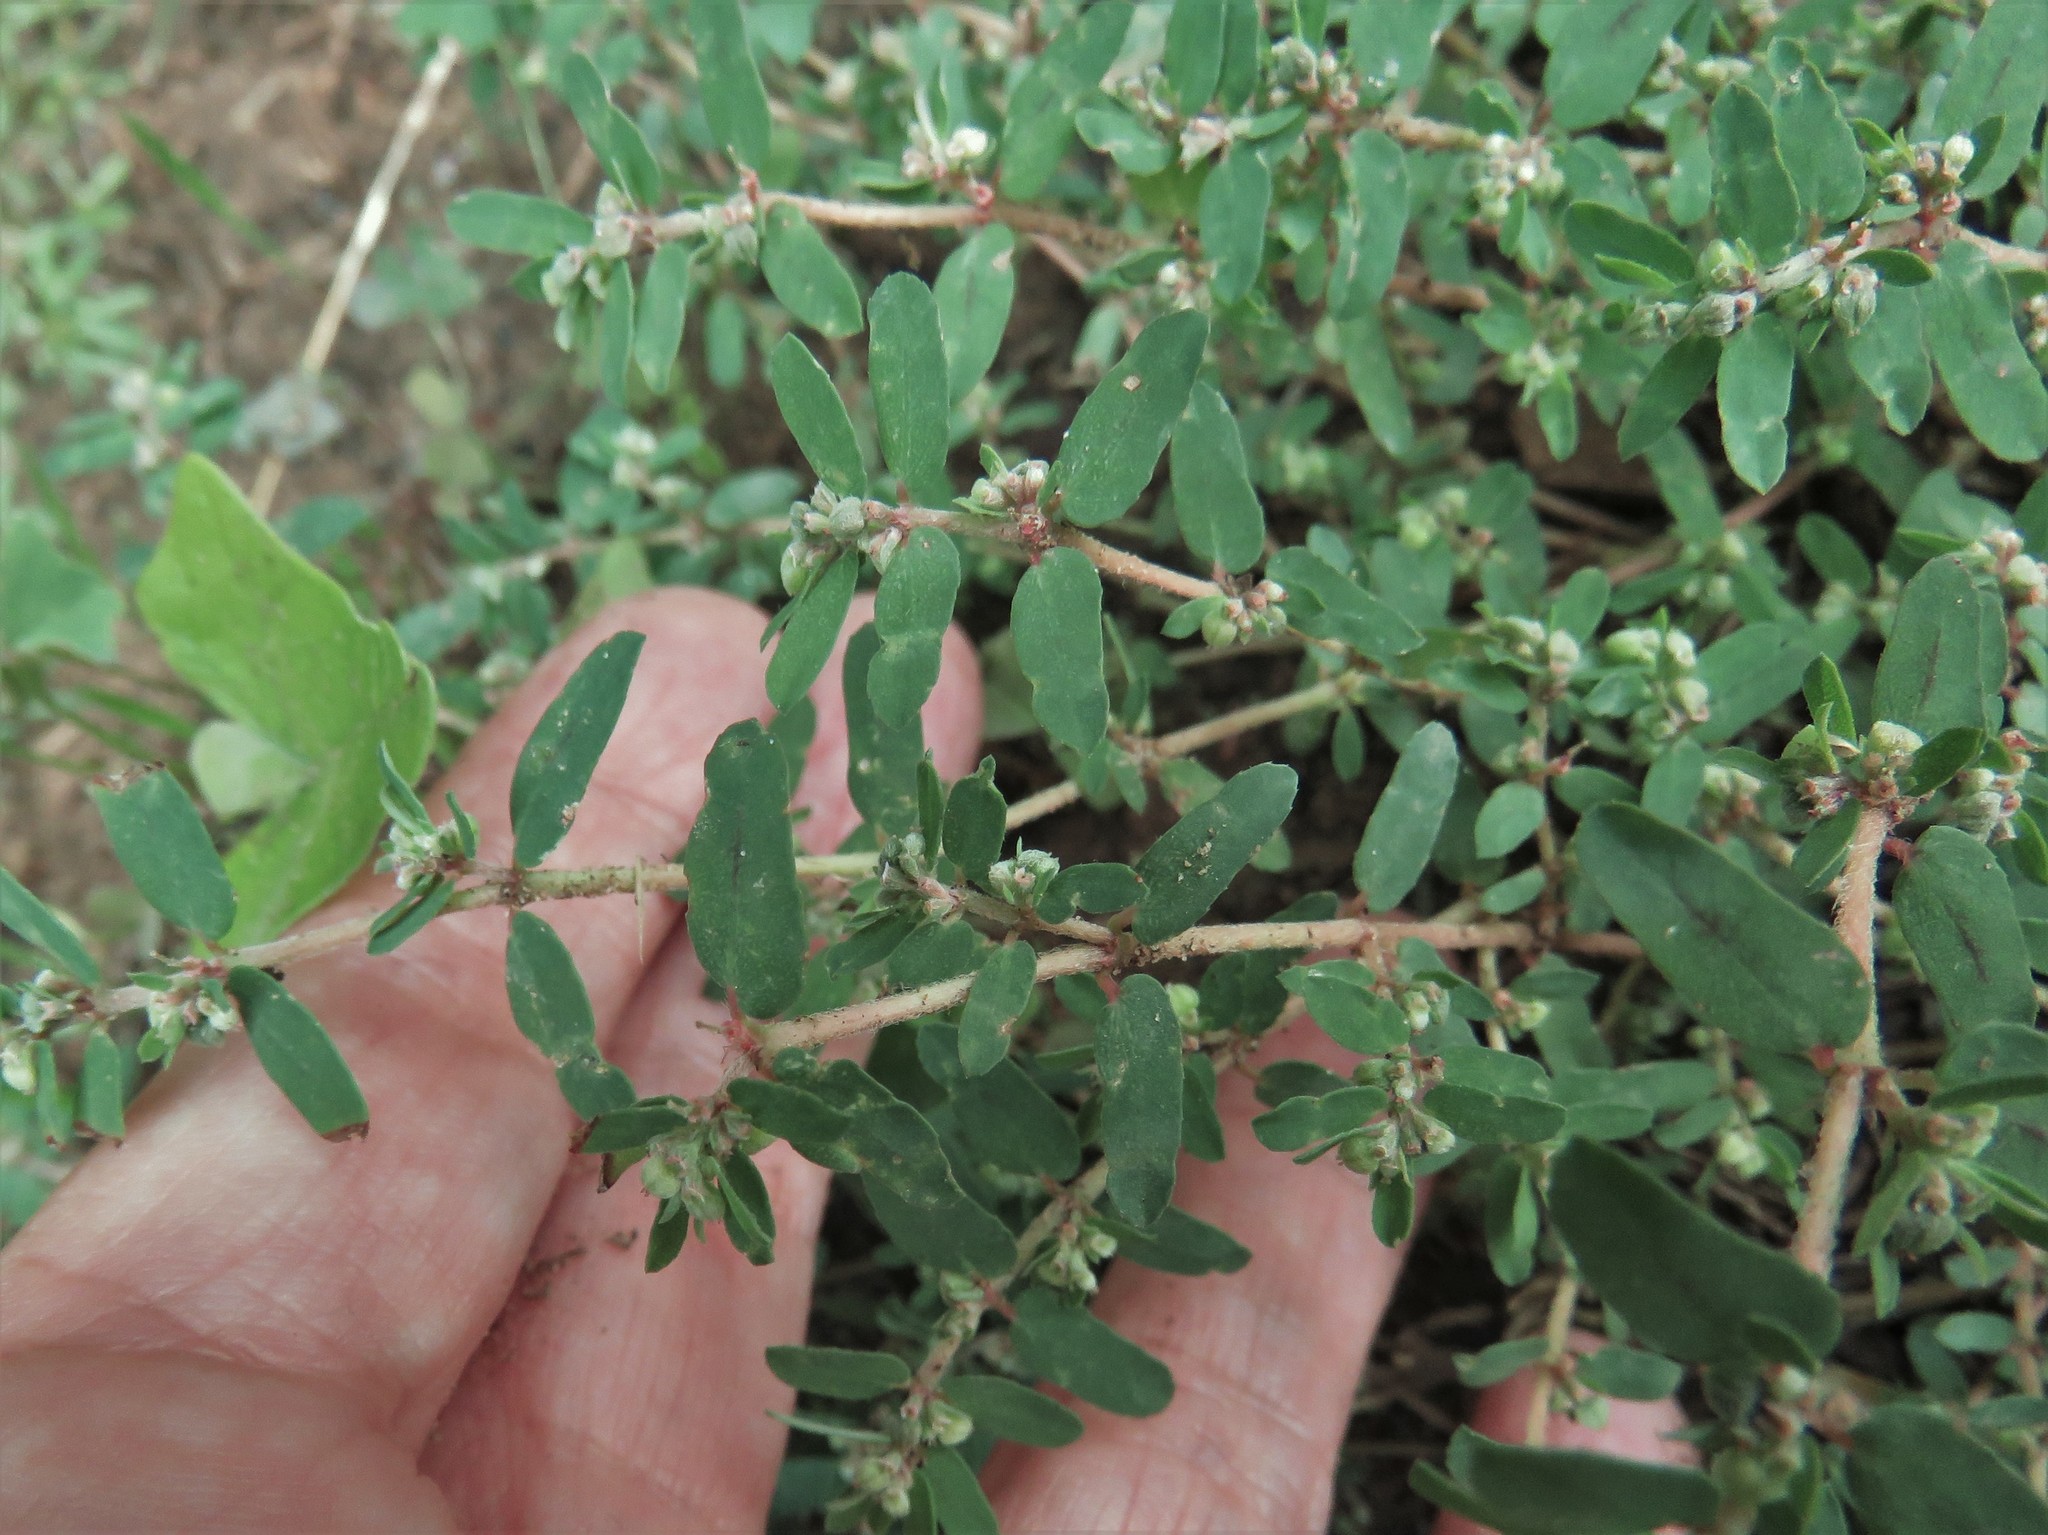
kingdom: Plantae
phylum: Tracheophyta
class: Magnoliopsida
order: Malpighiales
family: Euphorbiaceae
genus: Euphorbia
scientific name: Euphorbia maculata
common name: Spotted spurge
